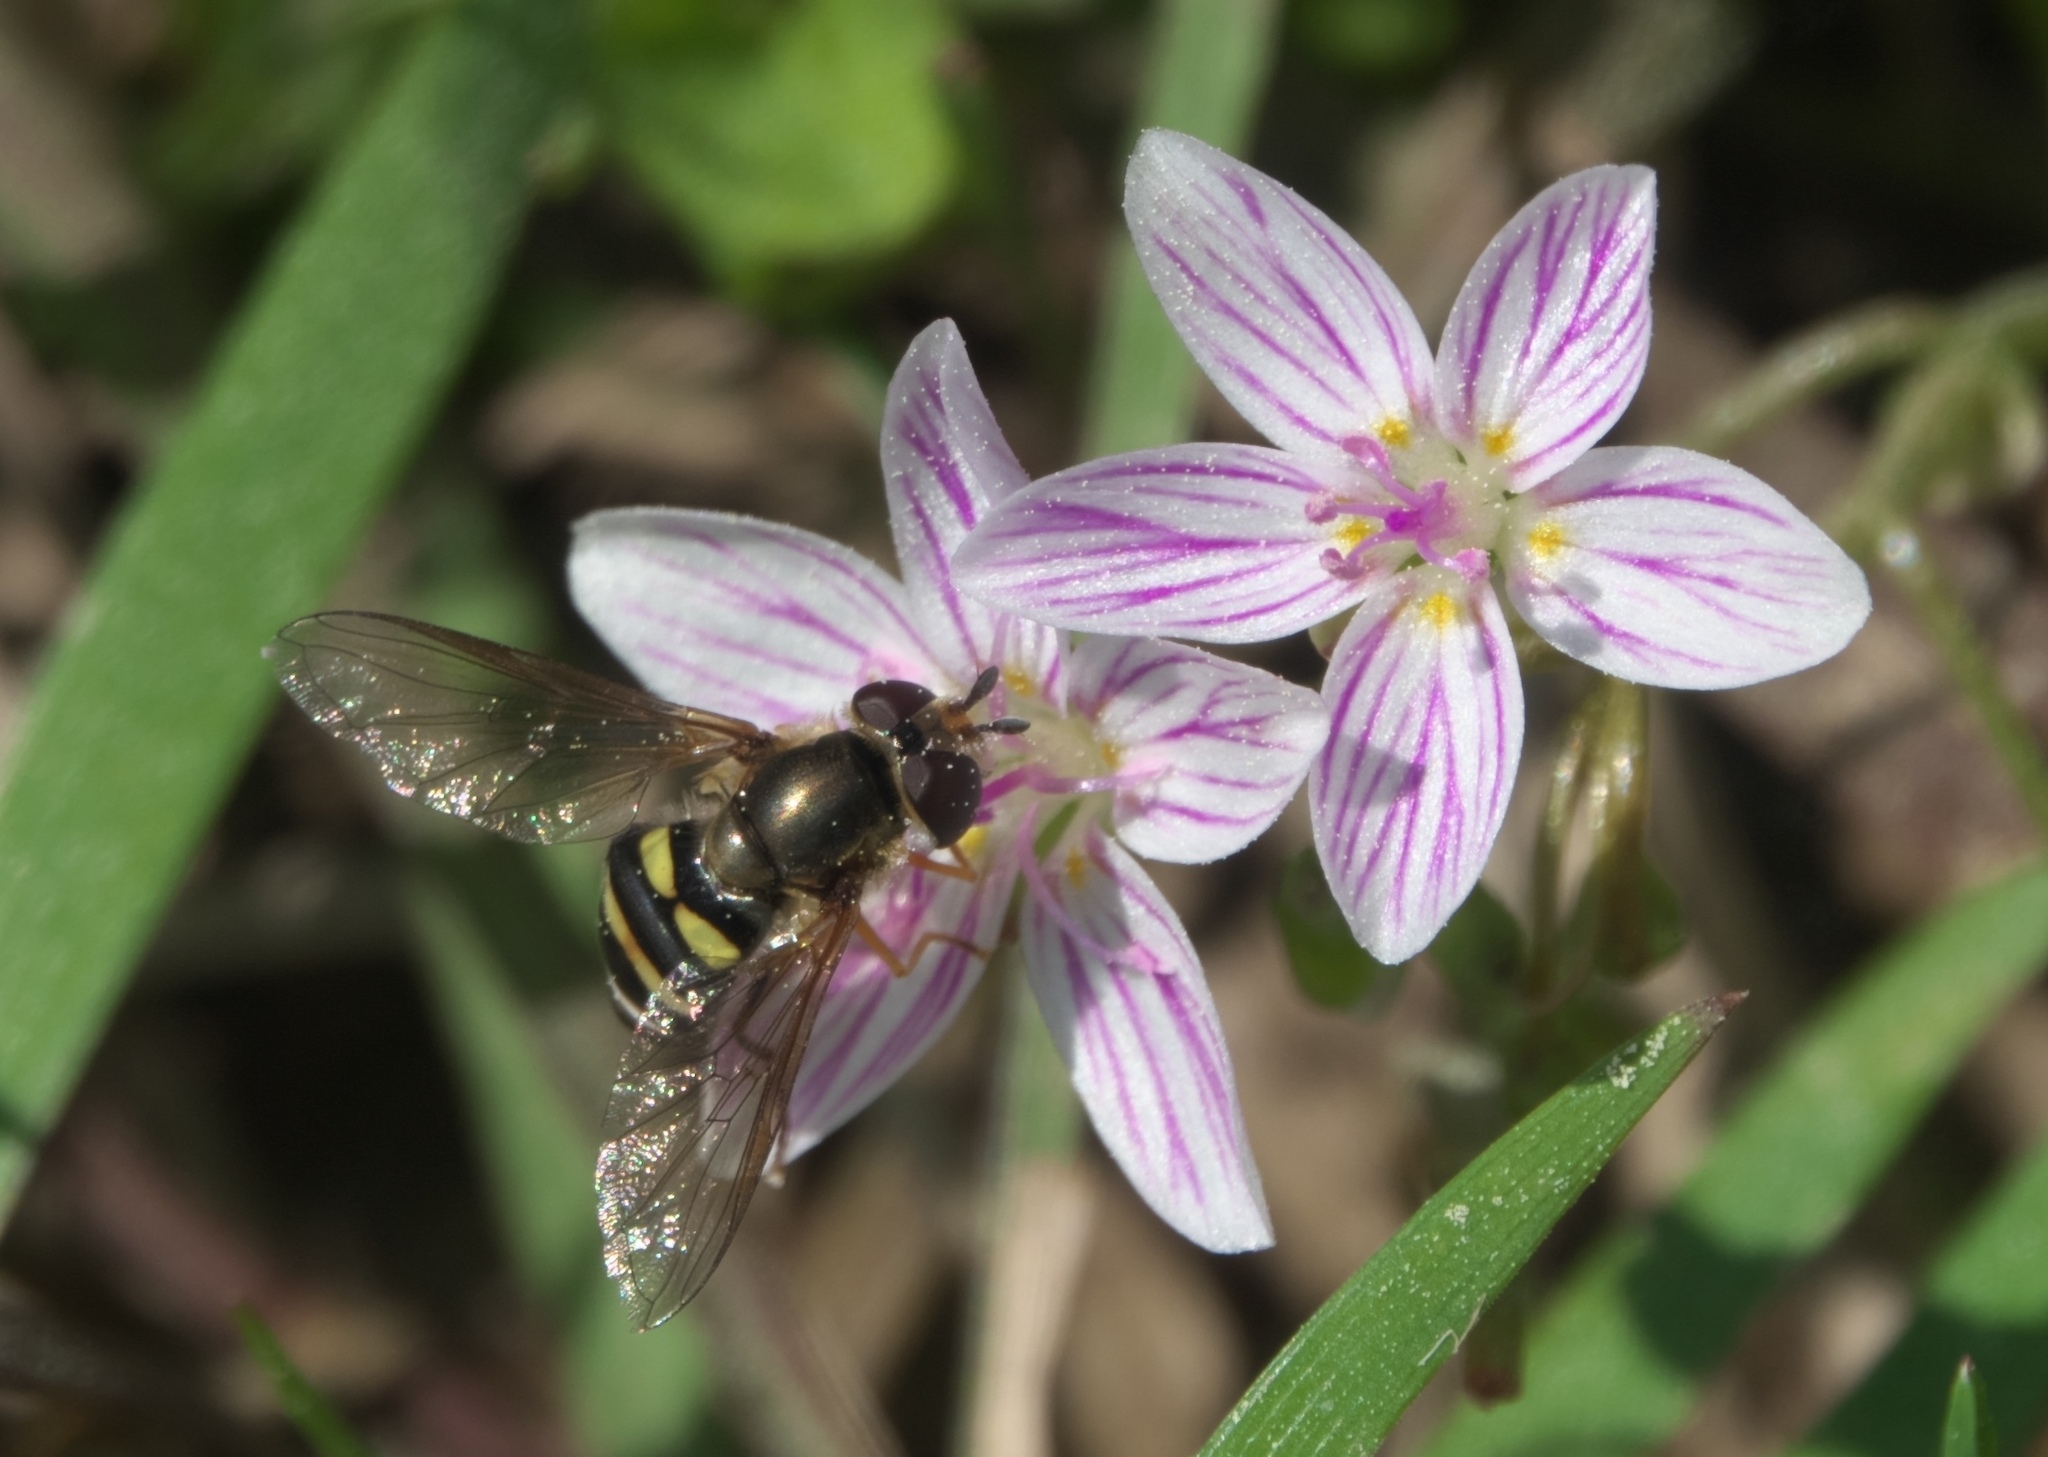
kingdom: Animalia
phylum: Arthropoda
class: Insecta
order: Diptera
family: Syrphidae
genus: Eupeodes
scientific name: Eupeodes
